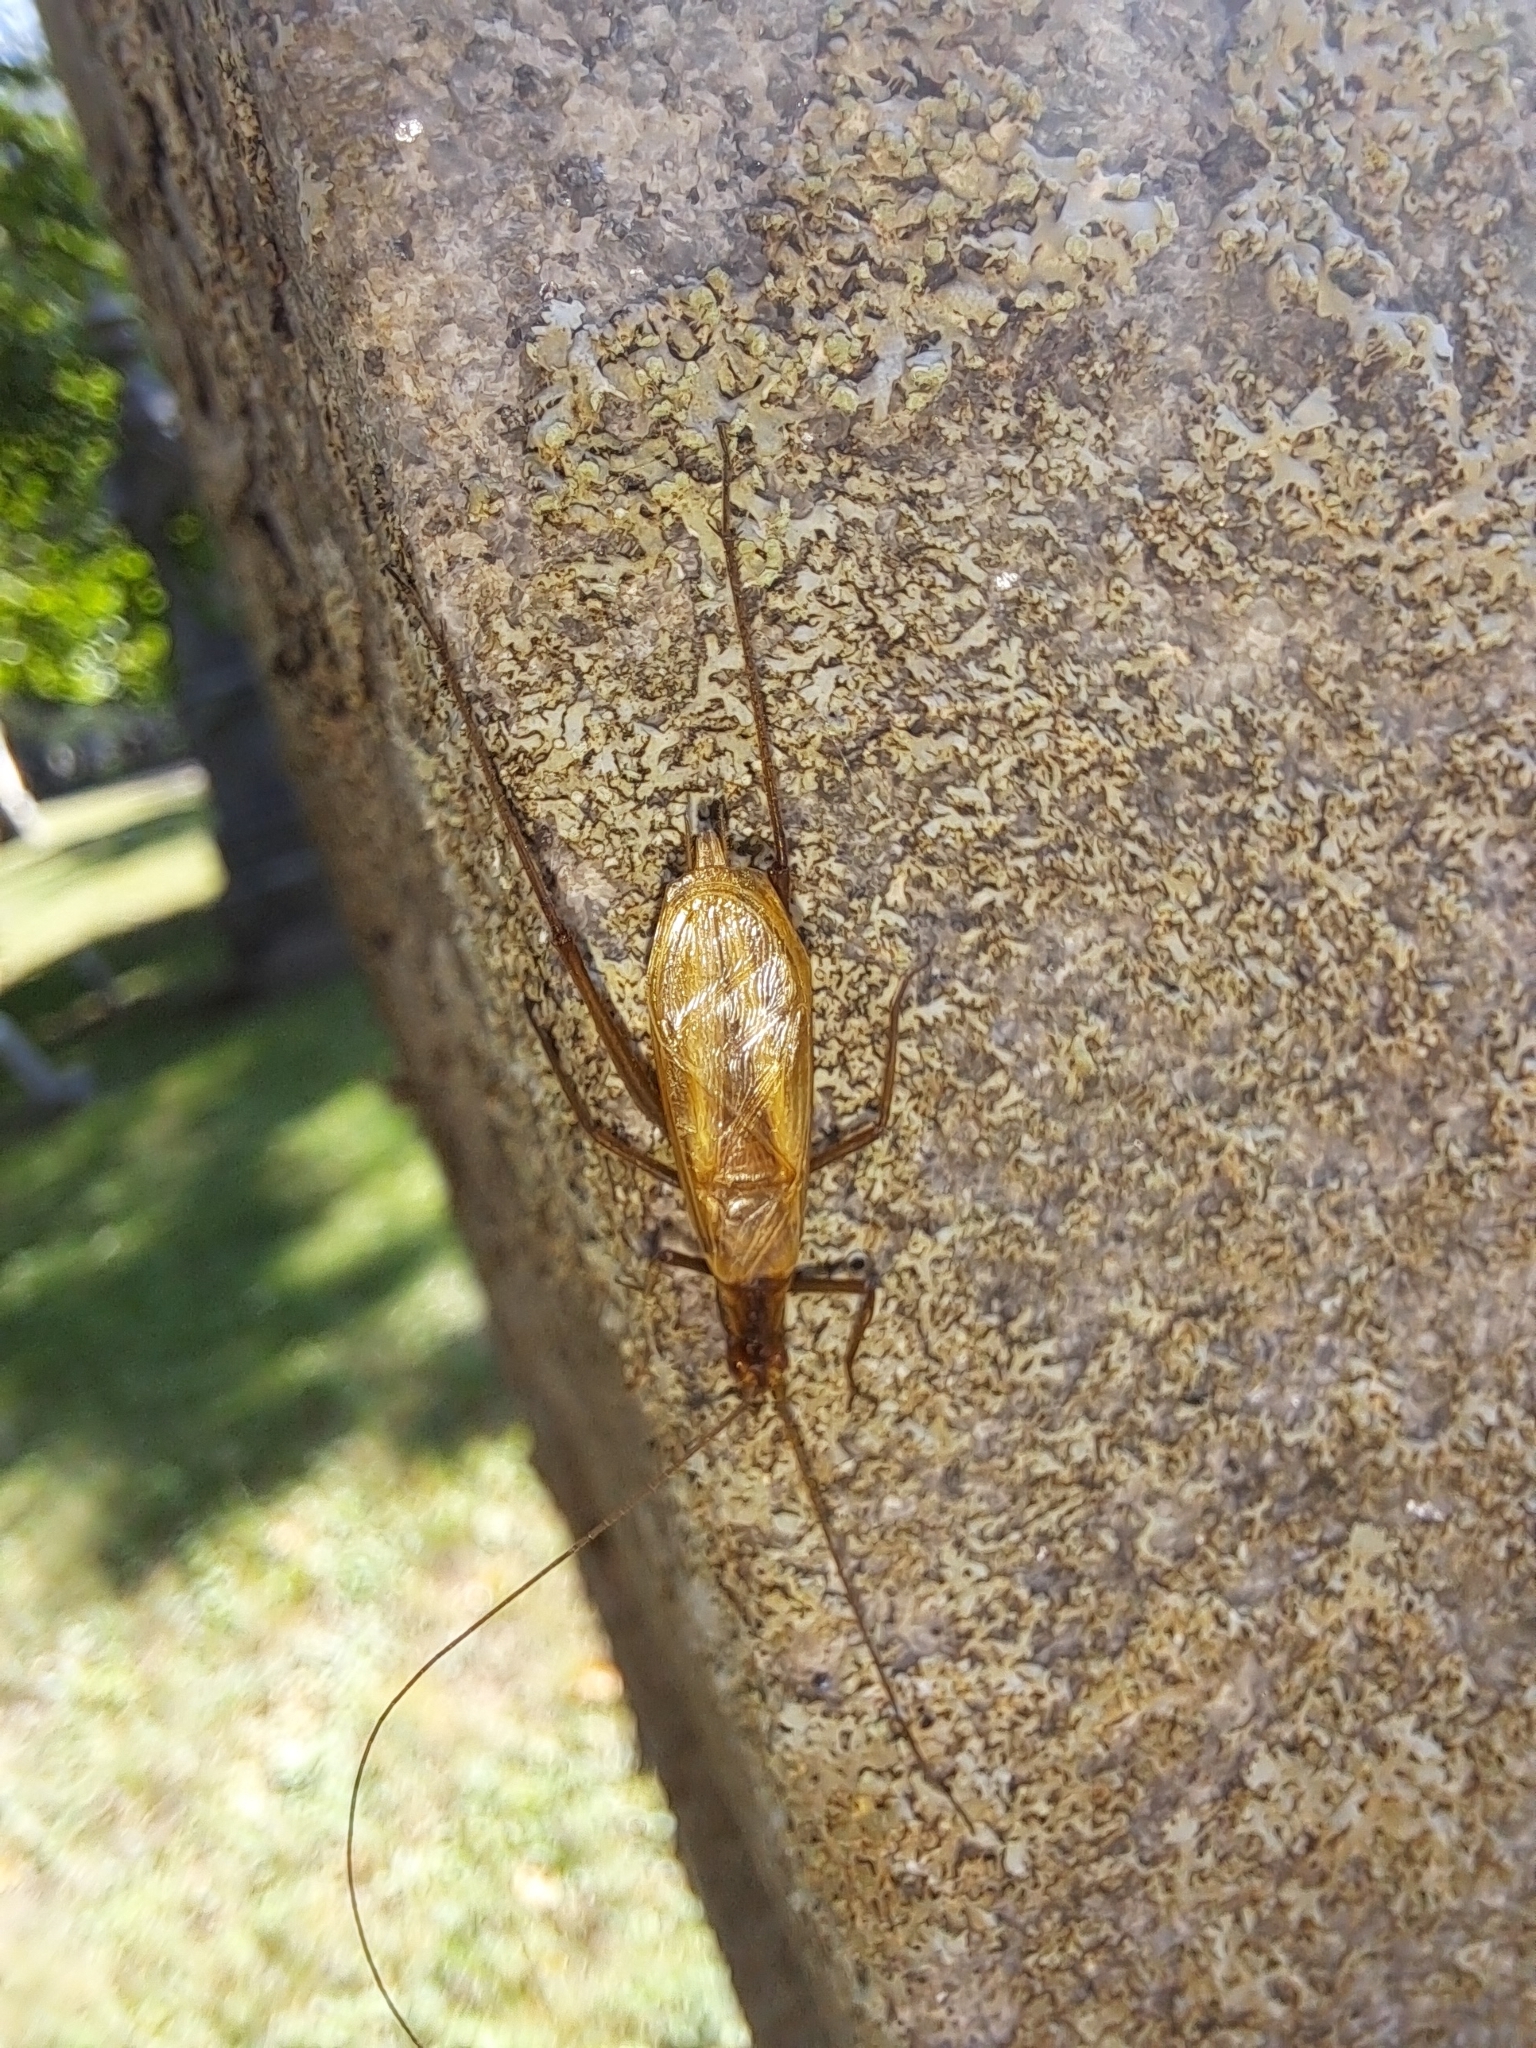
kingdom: Animalia
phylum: Arthropoda
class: Insecta
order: Orthoptera
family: Gryllidae
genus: Oecanthus
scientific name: Oecanthus pini
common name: Pine tree cricket
